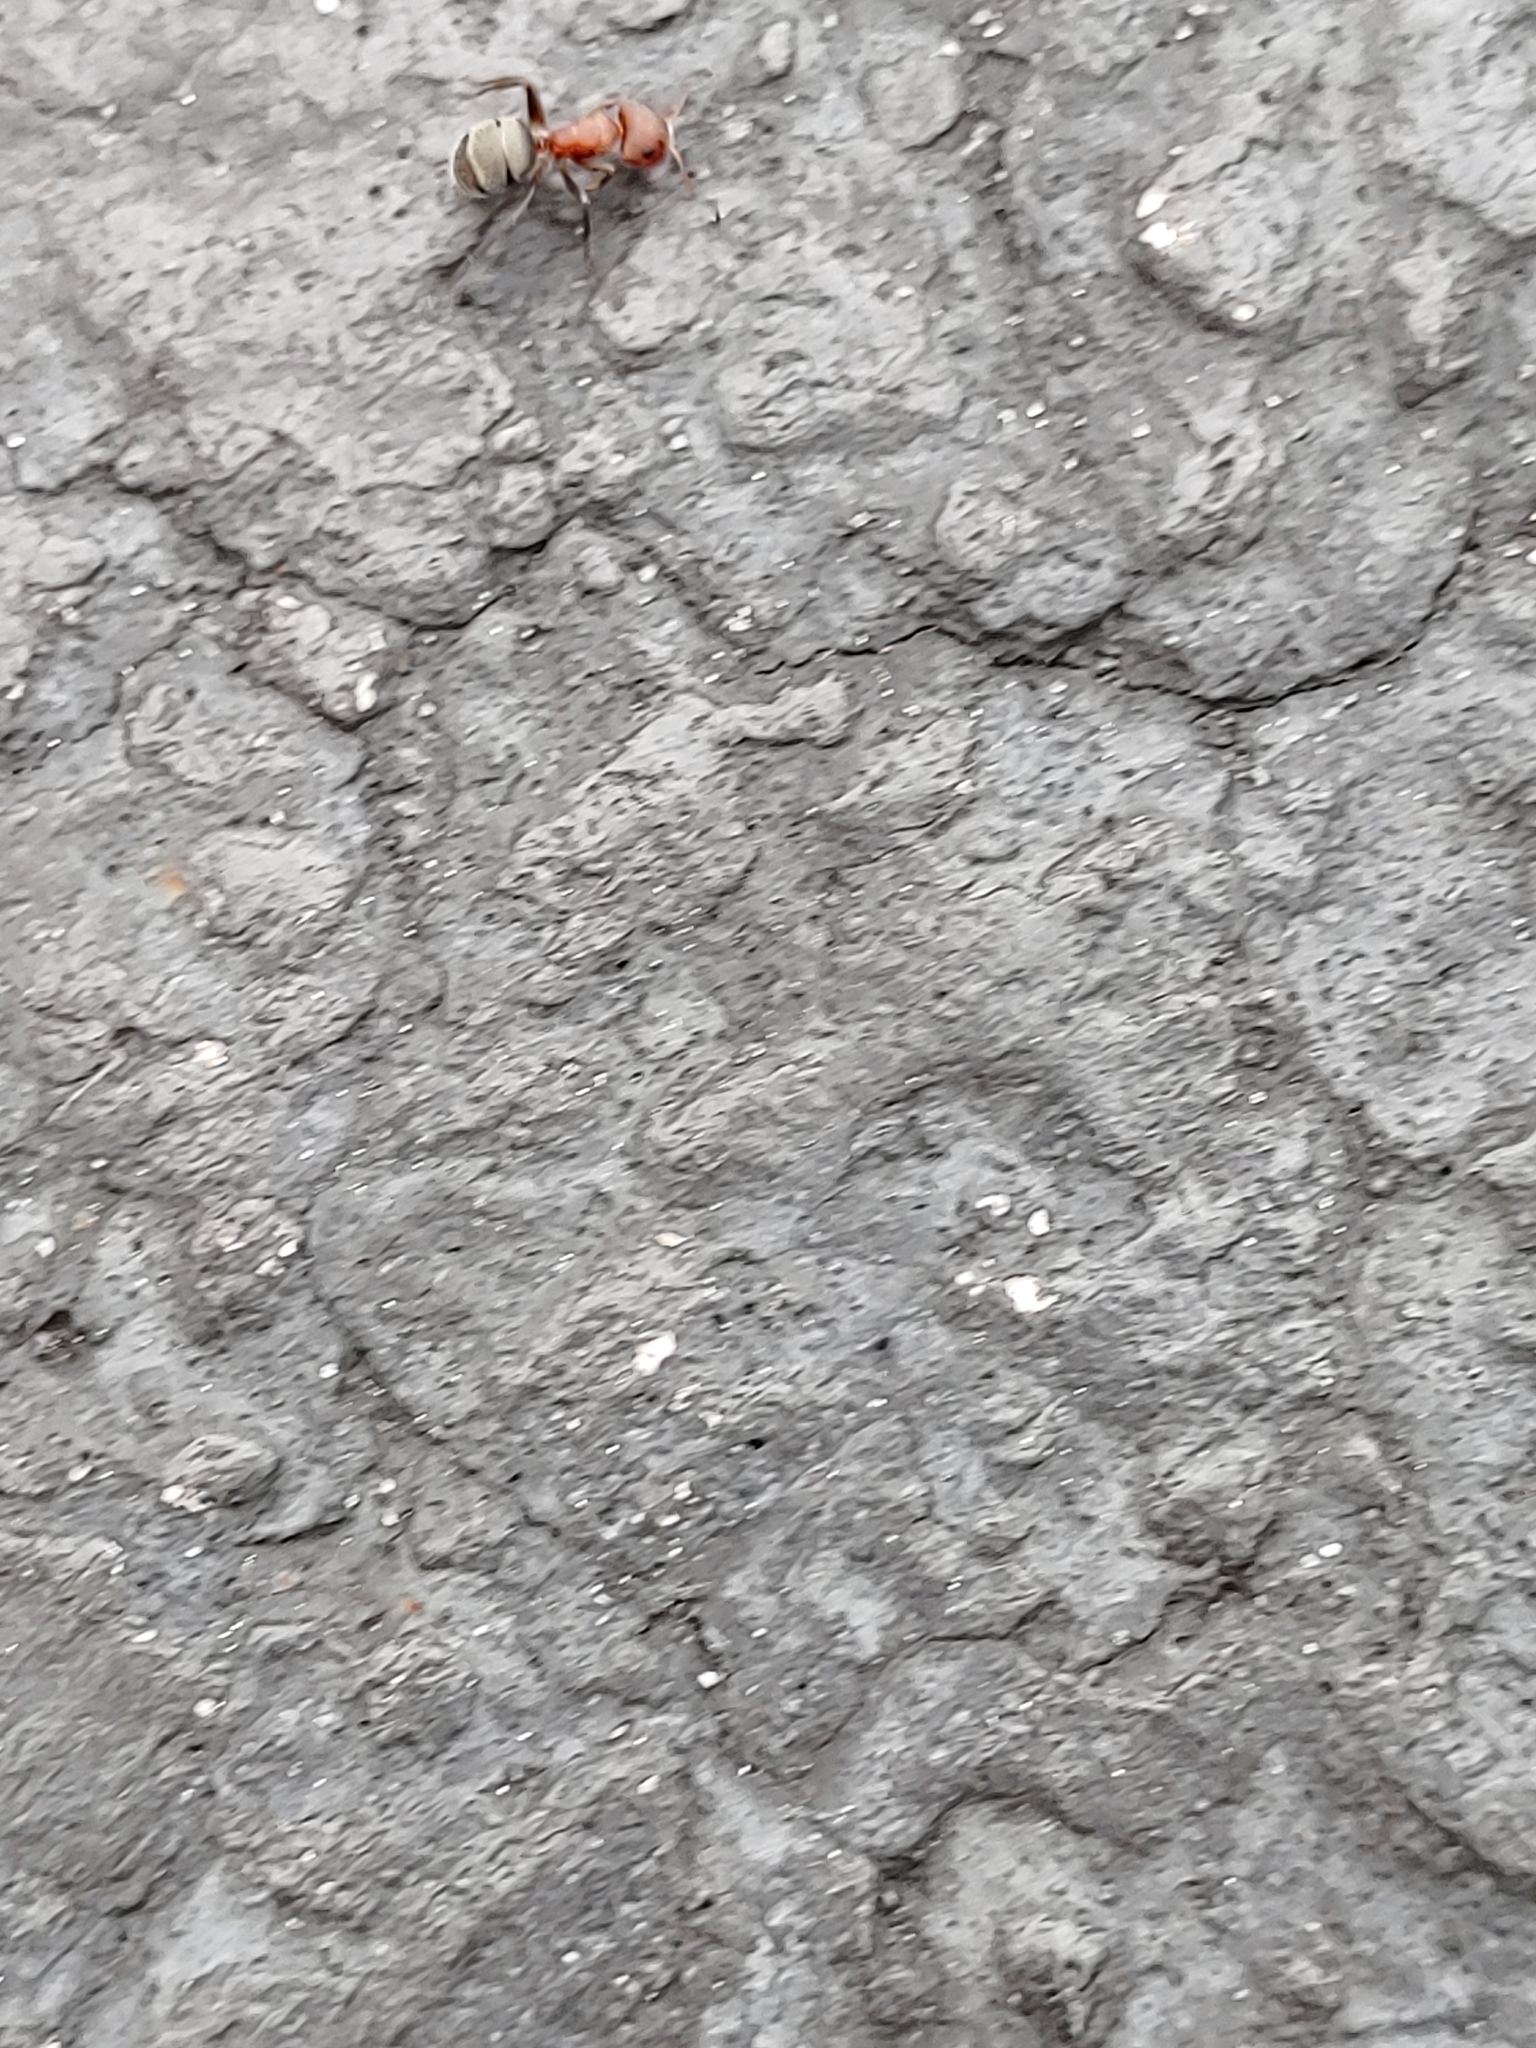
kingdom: Animalia
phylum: Arthropoda
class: Insecta
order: Hymenoptera
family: Formicidae
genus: Camponotus
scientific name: Camponotus planatus
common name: Compact carpenter ant
